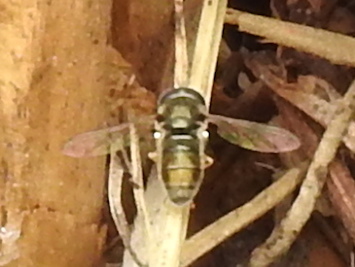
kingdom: Animalia
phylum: Arthropoda
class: Insecta
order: Diptera
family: Syrphidae
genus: Paragus
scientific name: Paragus haemorrhous
